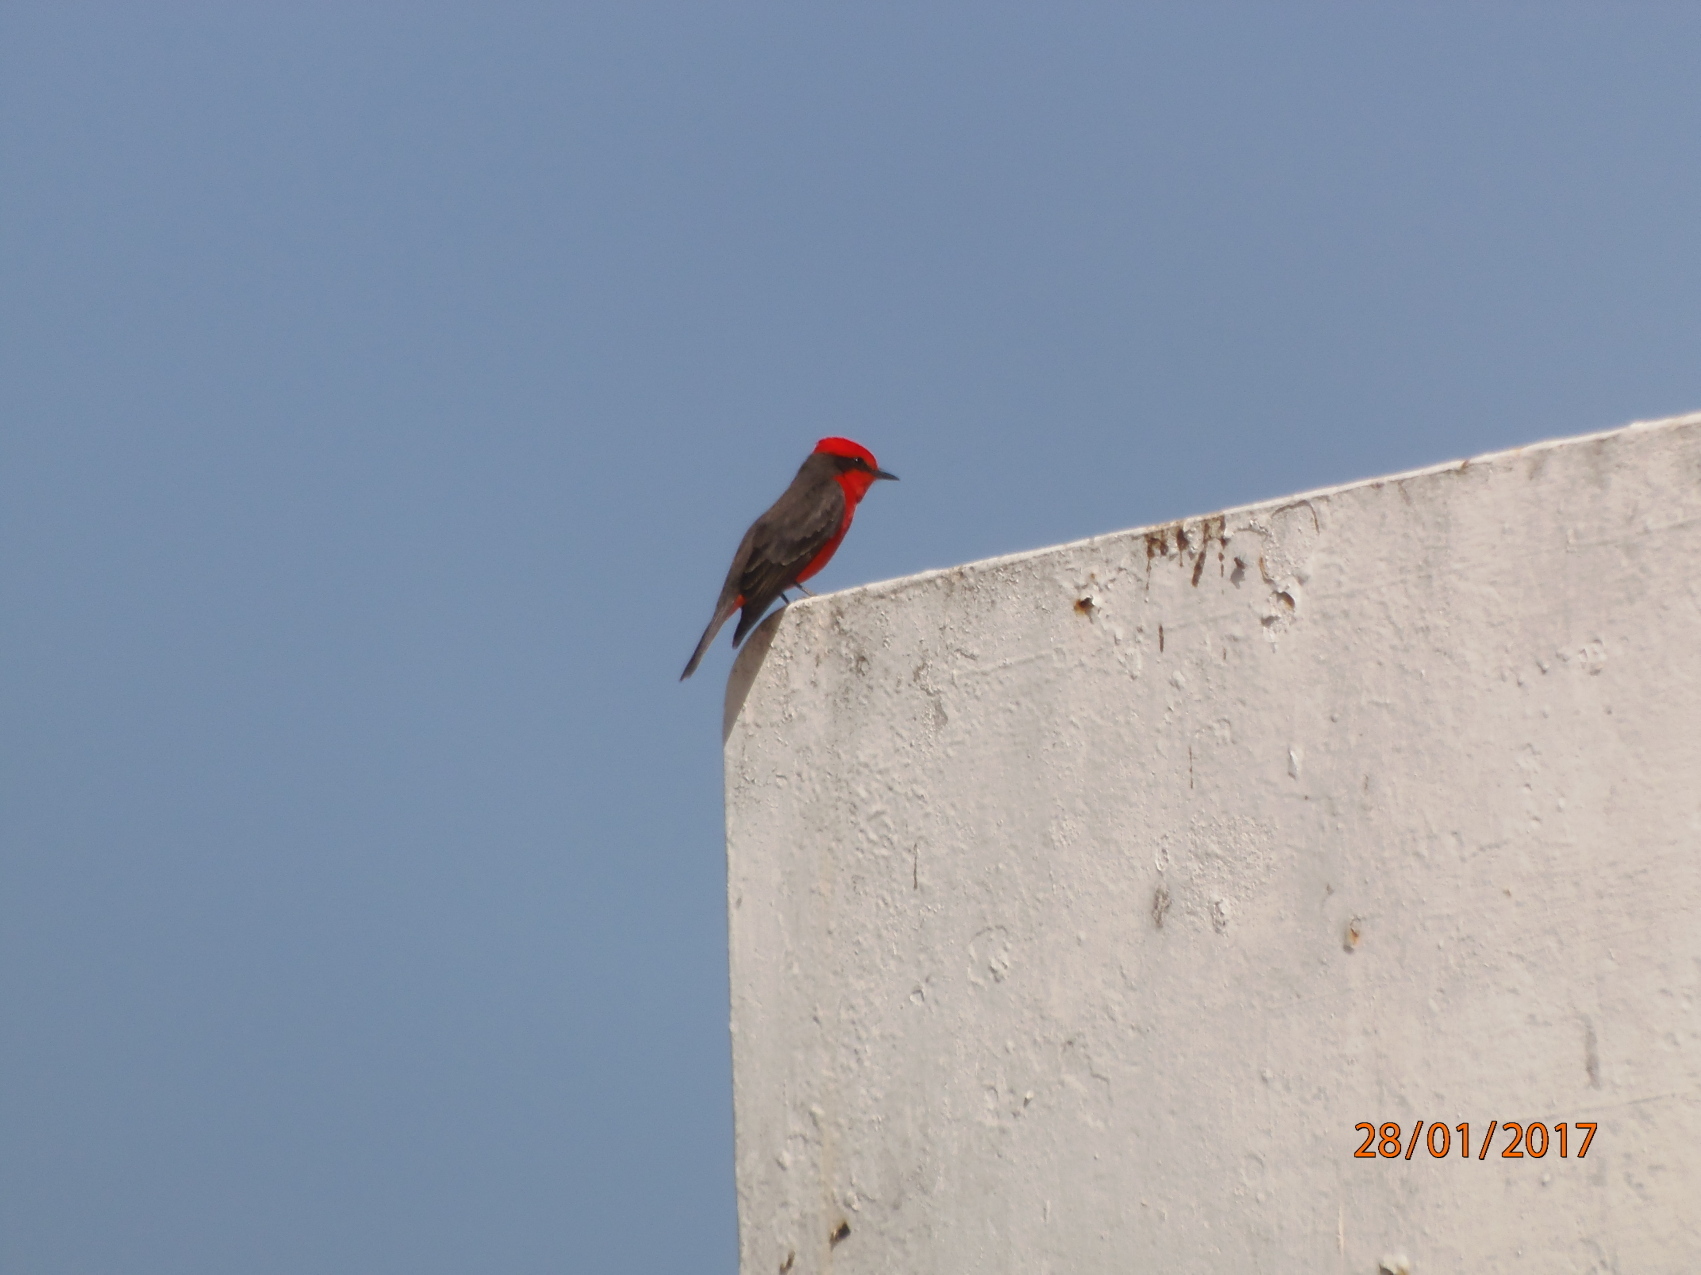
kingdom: Animalia
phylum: Chordata
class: Aves
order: Passeriformes
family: Tyrannidae
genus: Pyrocephalus
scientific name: Pyrocephalus rubinus
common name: Vermilion flycatcher
